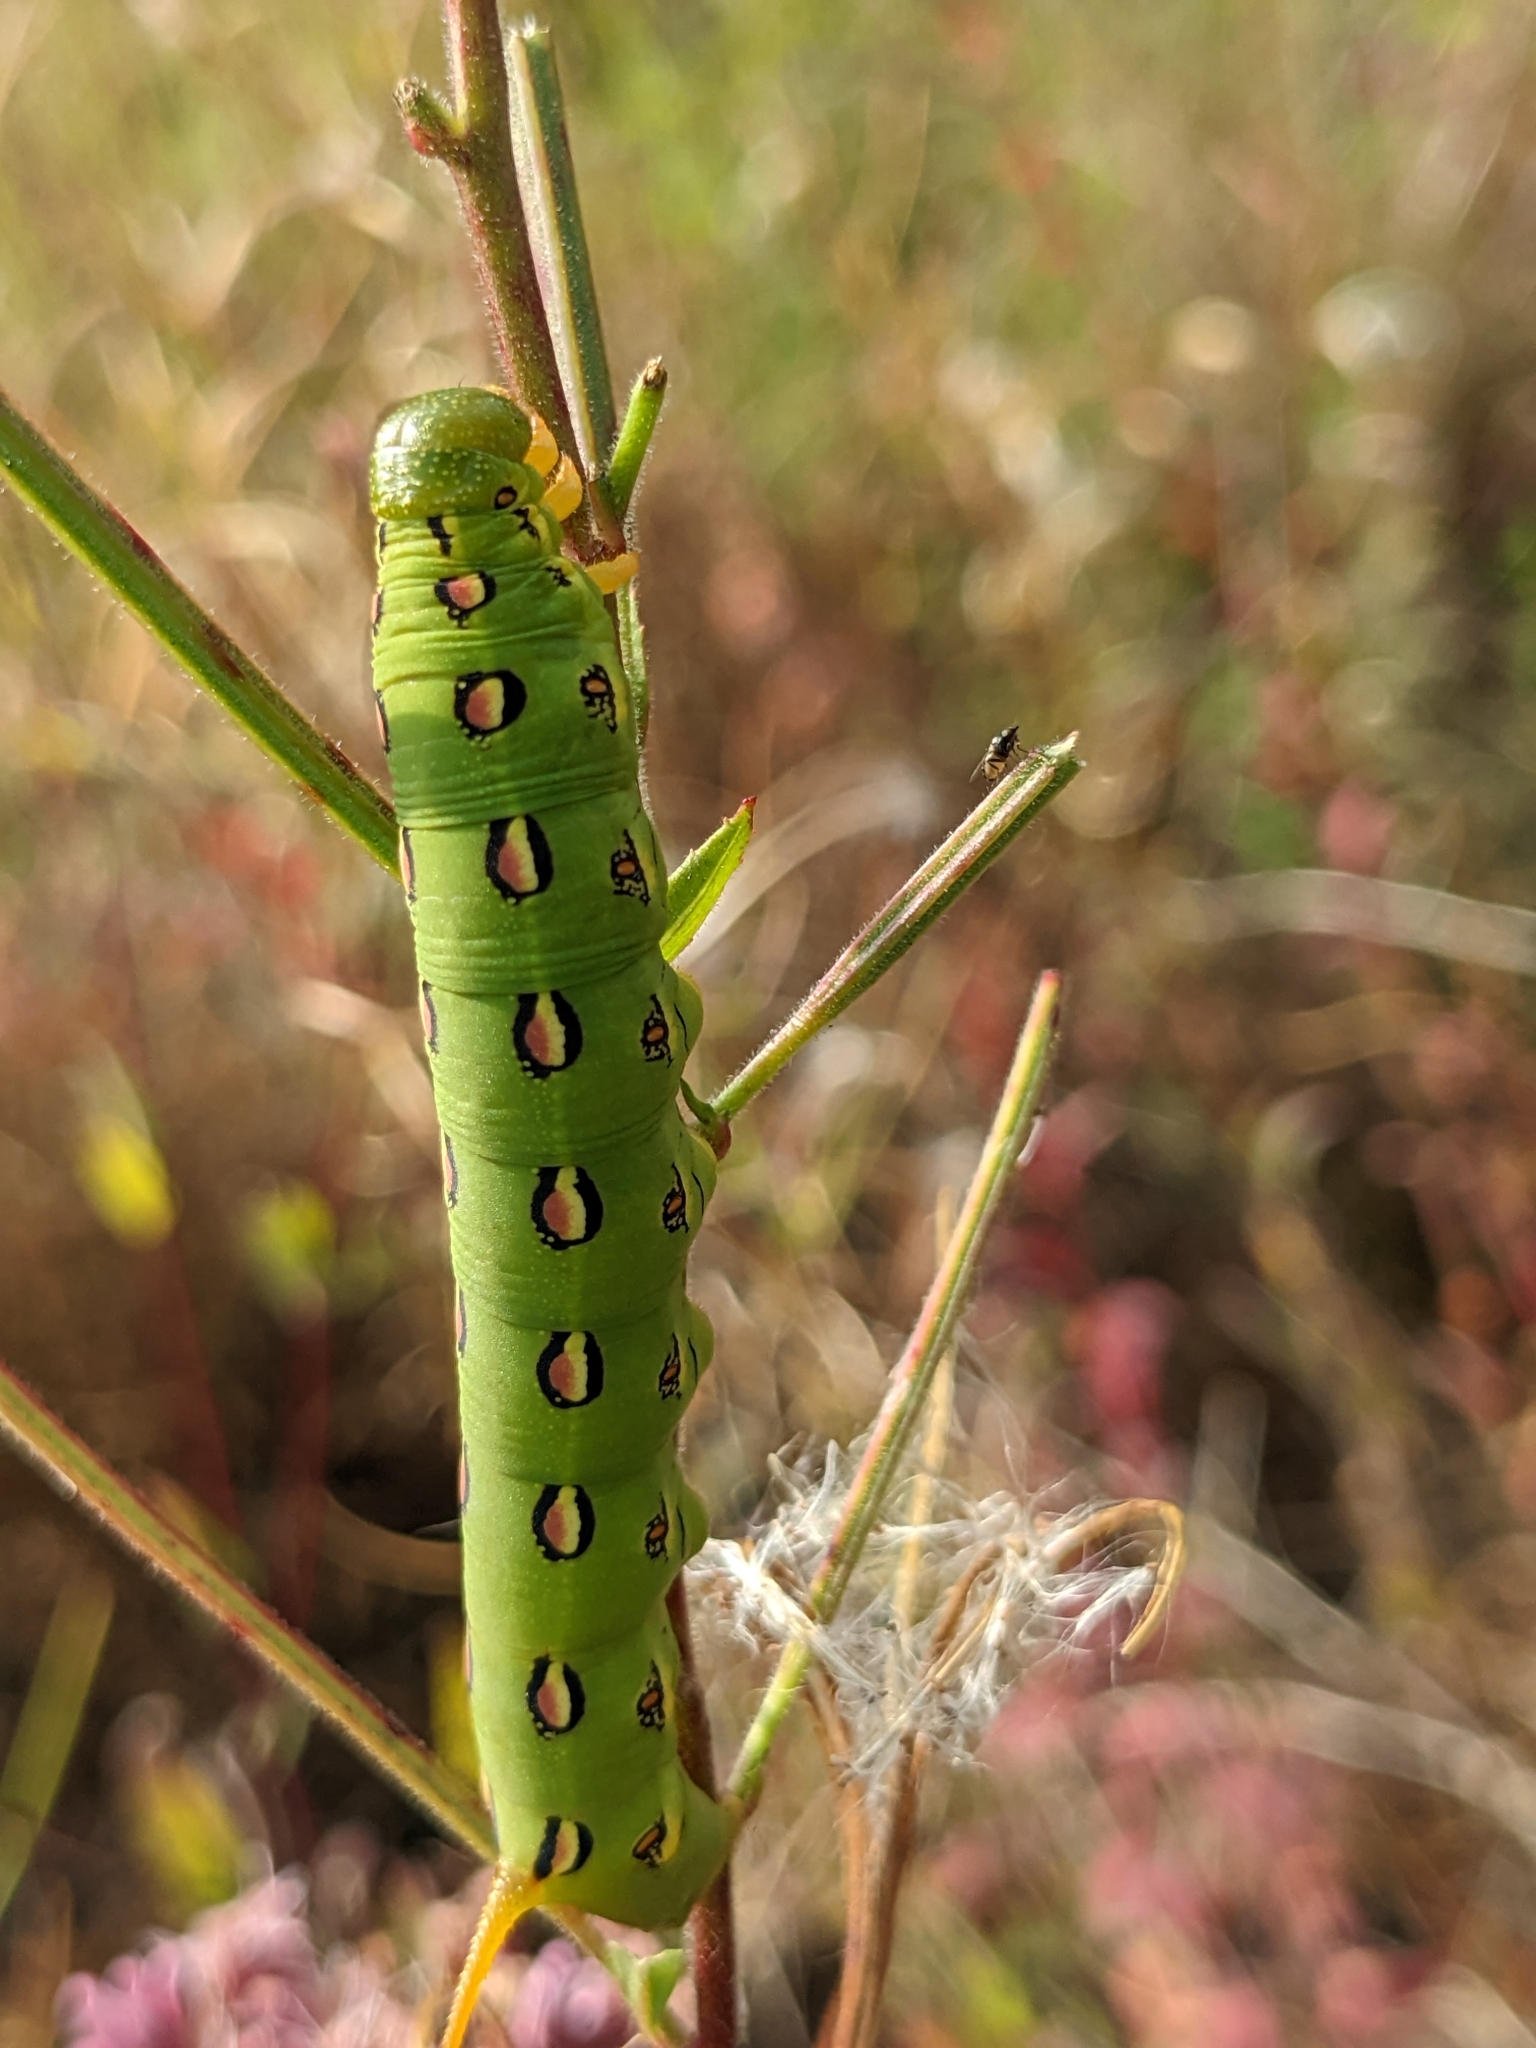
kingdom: Animalia
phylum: Arthropoda
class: Insecta
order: Lepidoptera
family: Sphingidae
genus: Hyles
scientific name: Hyles lineata
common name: White-lined sphinx
